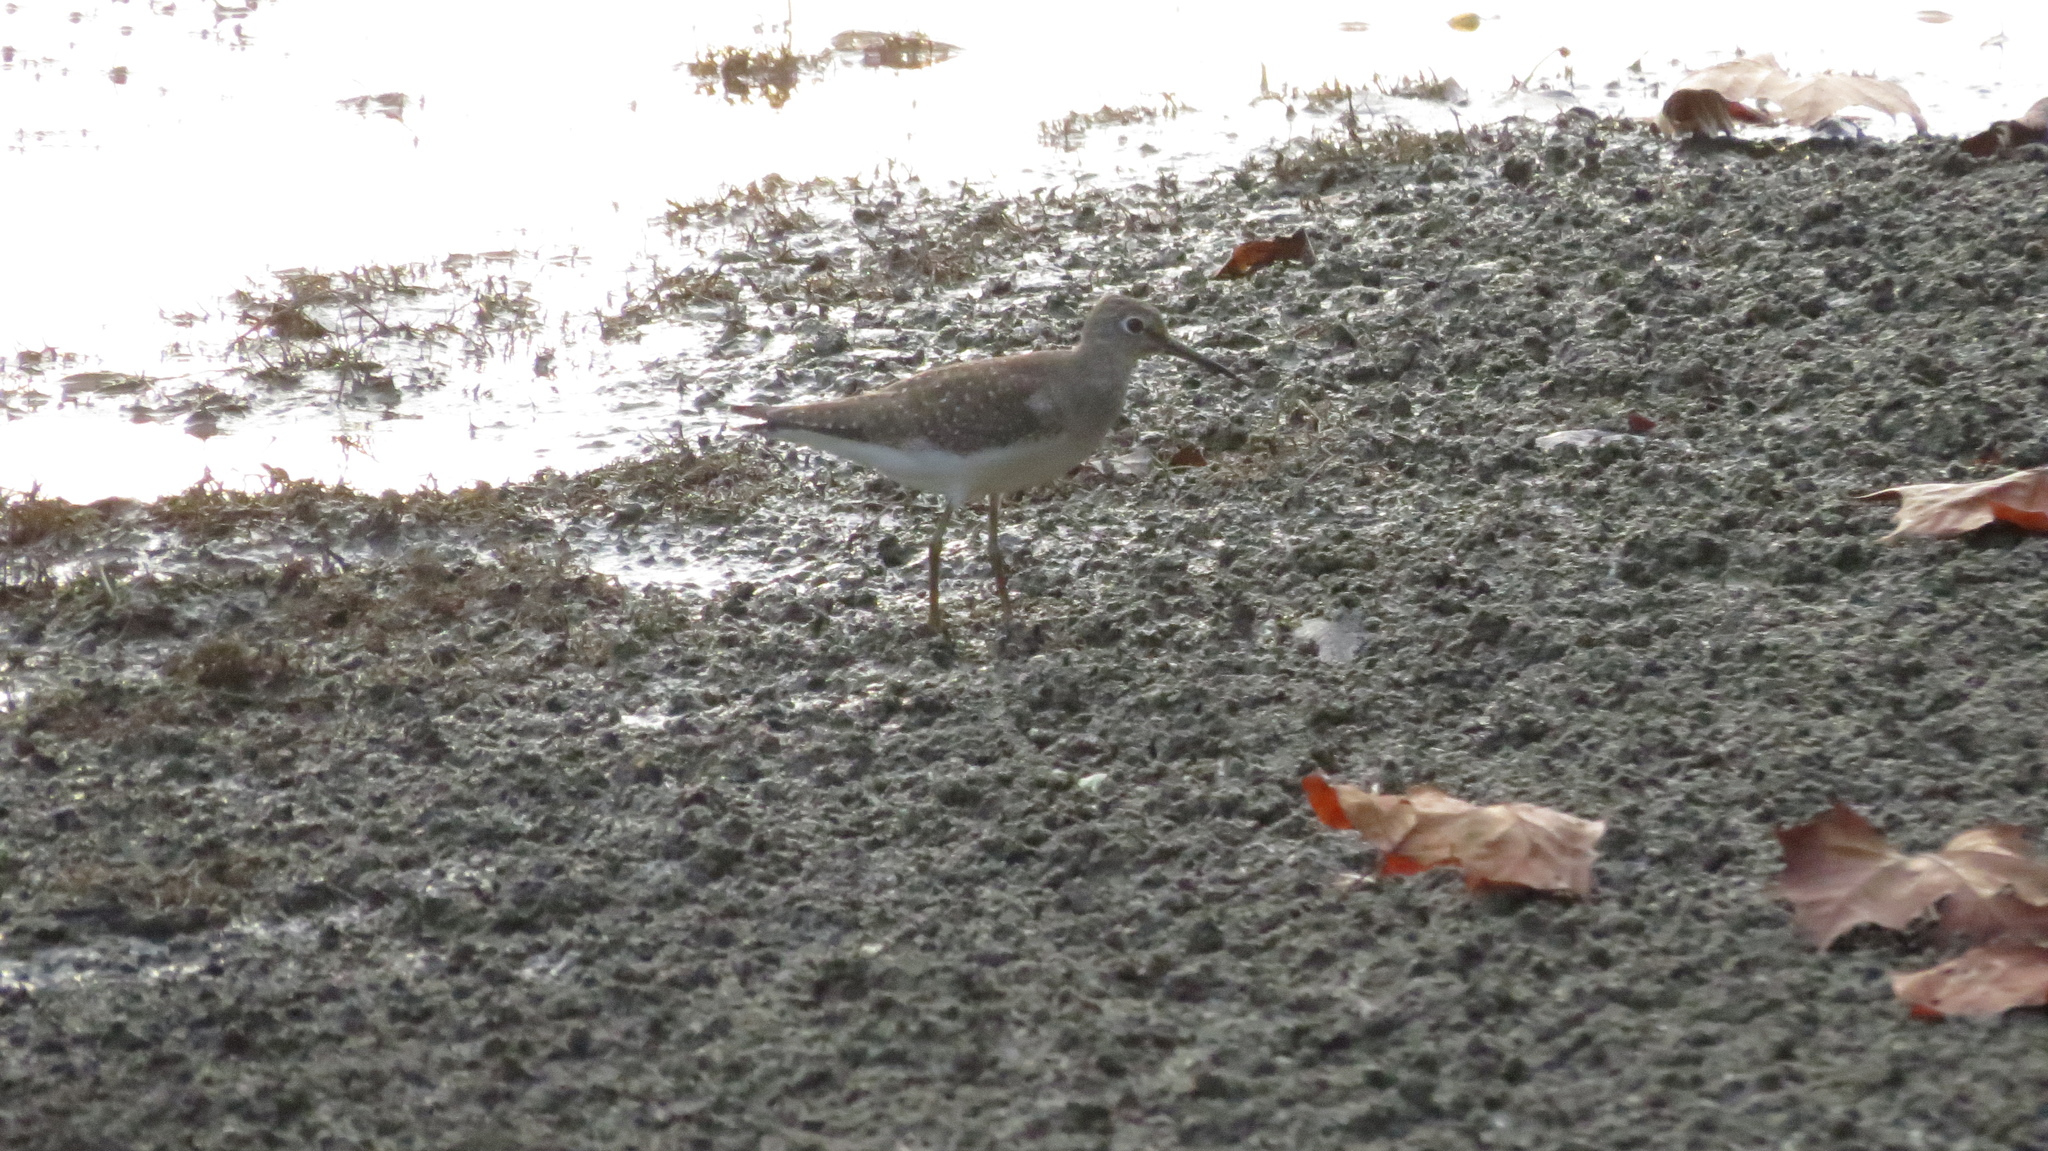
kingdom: Animalia
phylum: Chordata
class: Aves
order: Charadriiformes
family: Scolopacidae
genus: Tringa
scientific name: Tringa solitaria
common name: Solitary sandpiper
